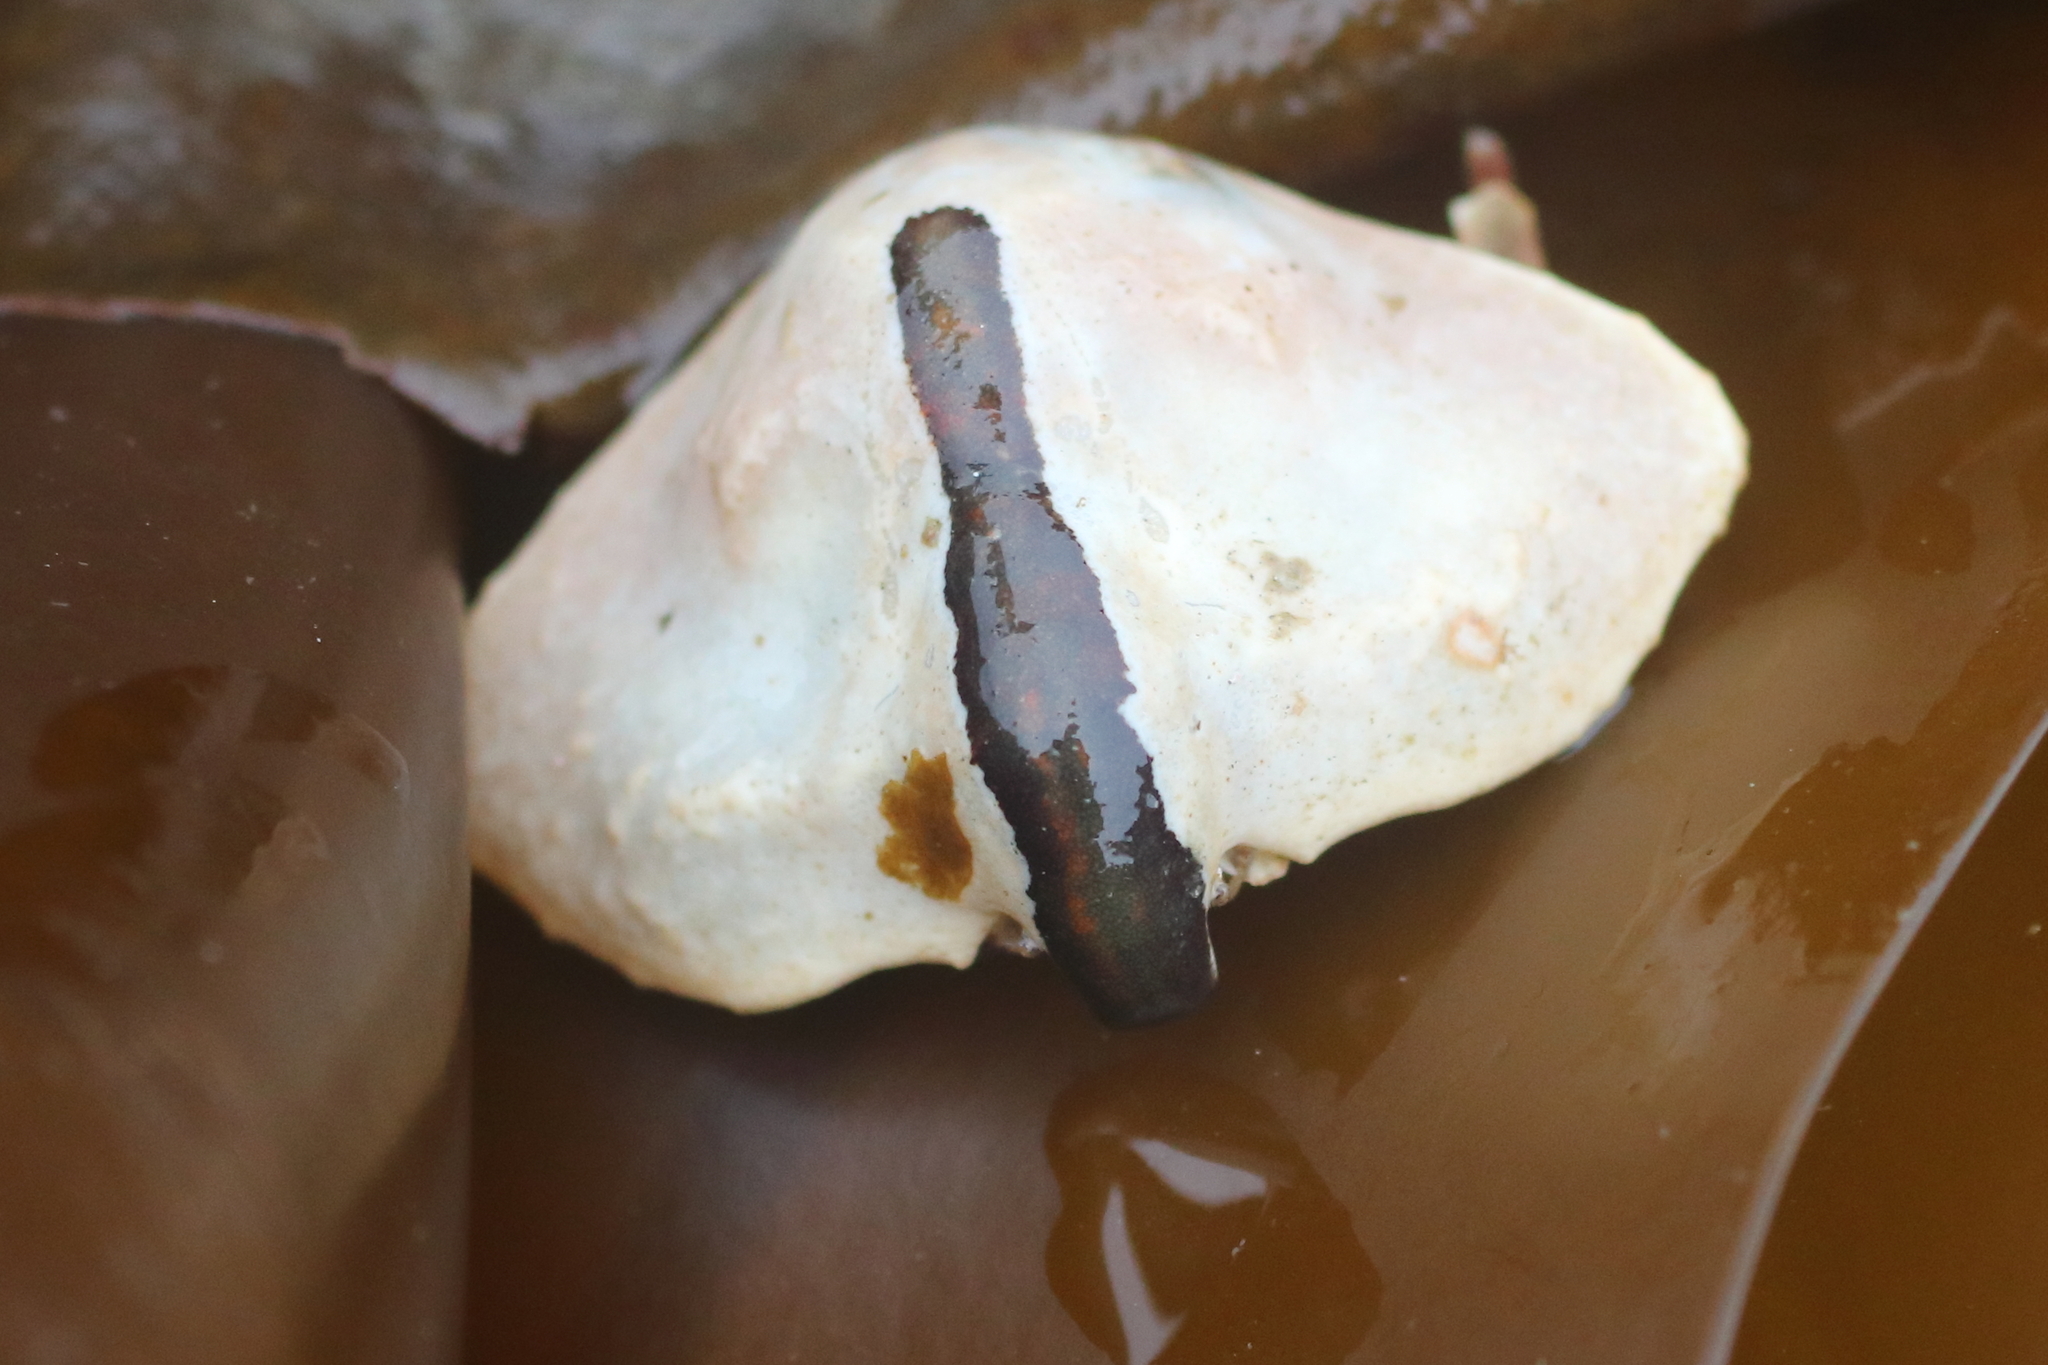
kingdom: Animalia
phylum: Arthropoda
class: Malacostraca
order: Decapoda
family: Lithodidae
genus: Cryptolithodes
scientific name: Cryptolithodes typicus
